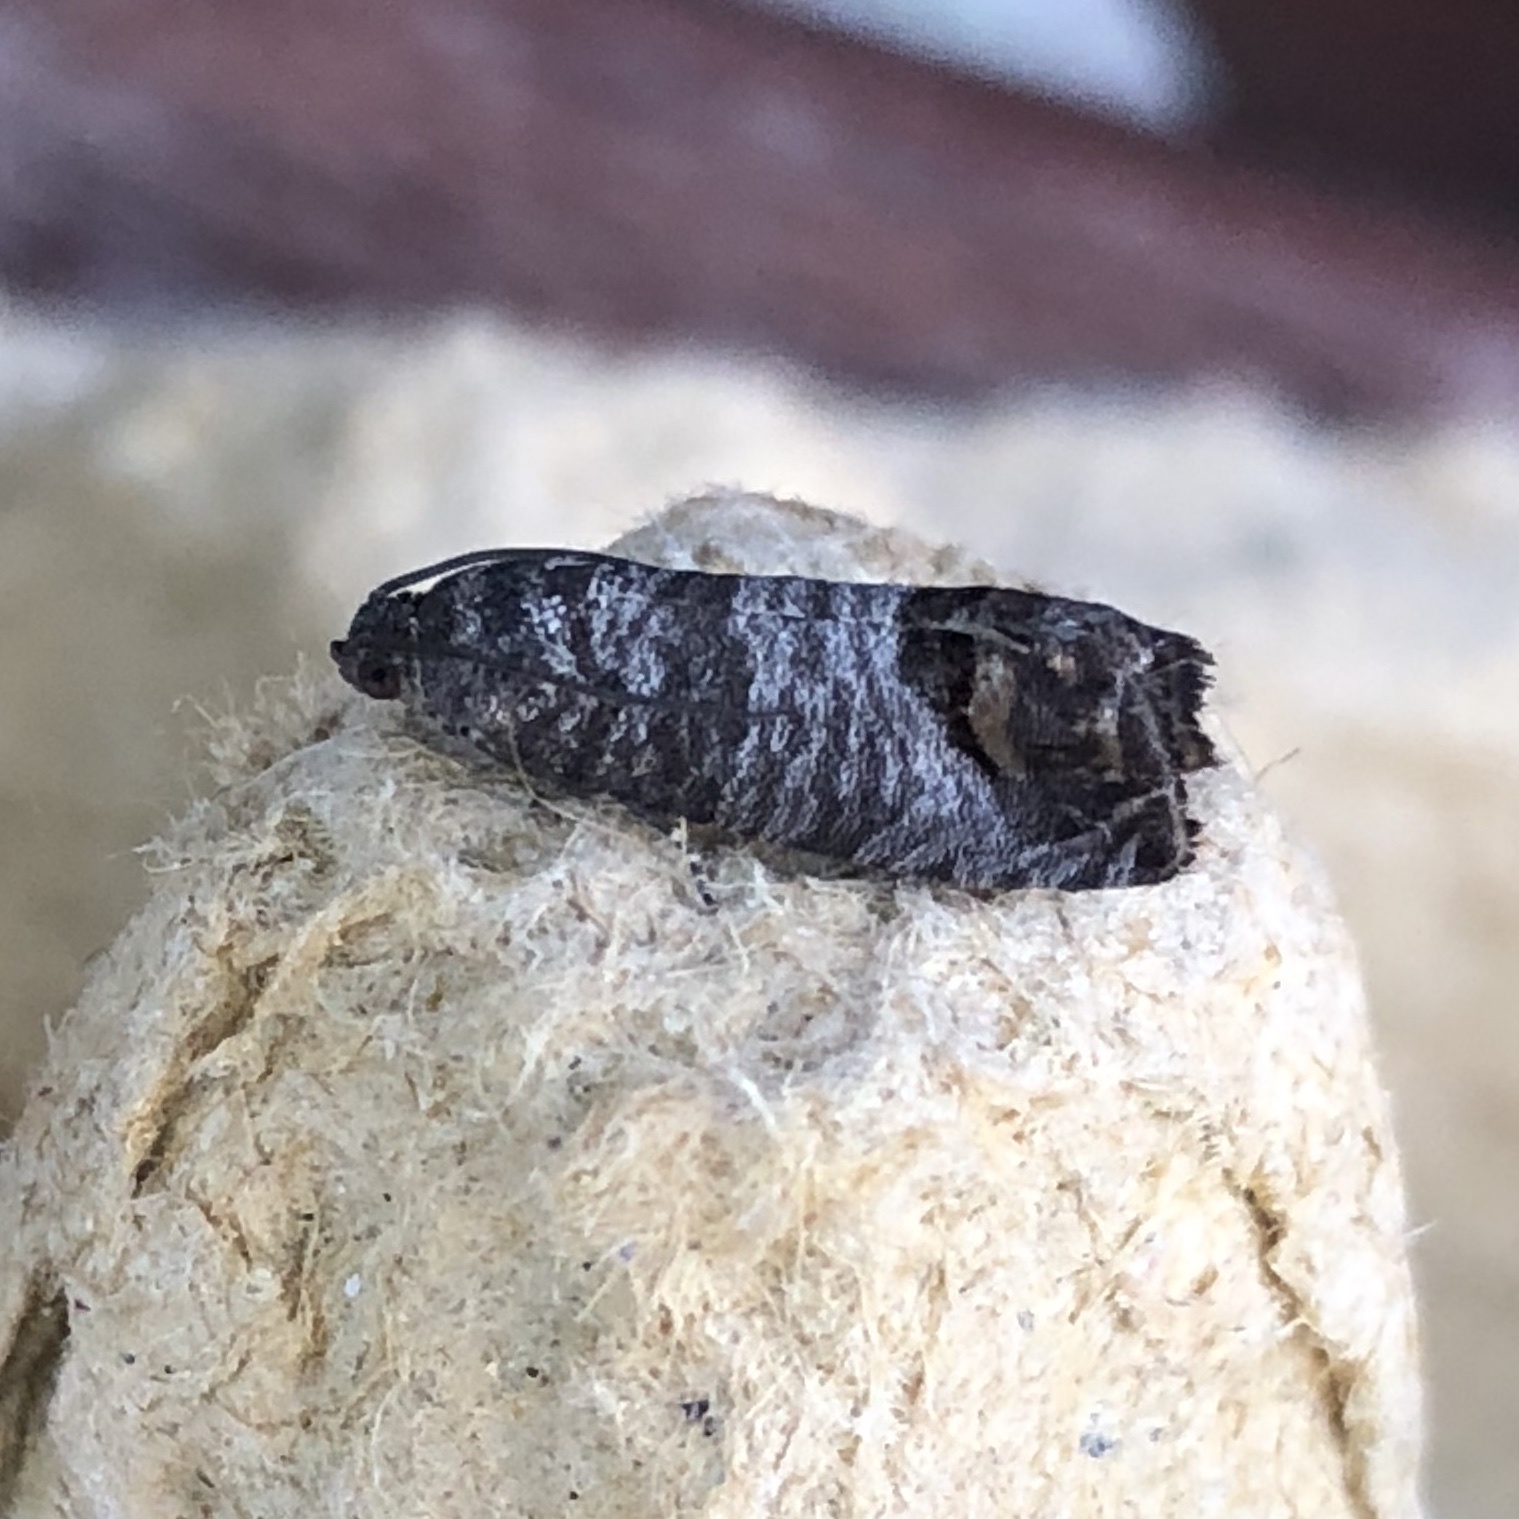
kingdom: Animalia
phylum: Arthropoda
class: Insecta
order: Lepidoptera
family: Tortricidae
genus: Cydia
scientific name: Cydia pomonella
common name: Codling moth
